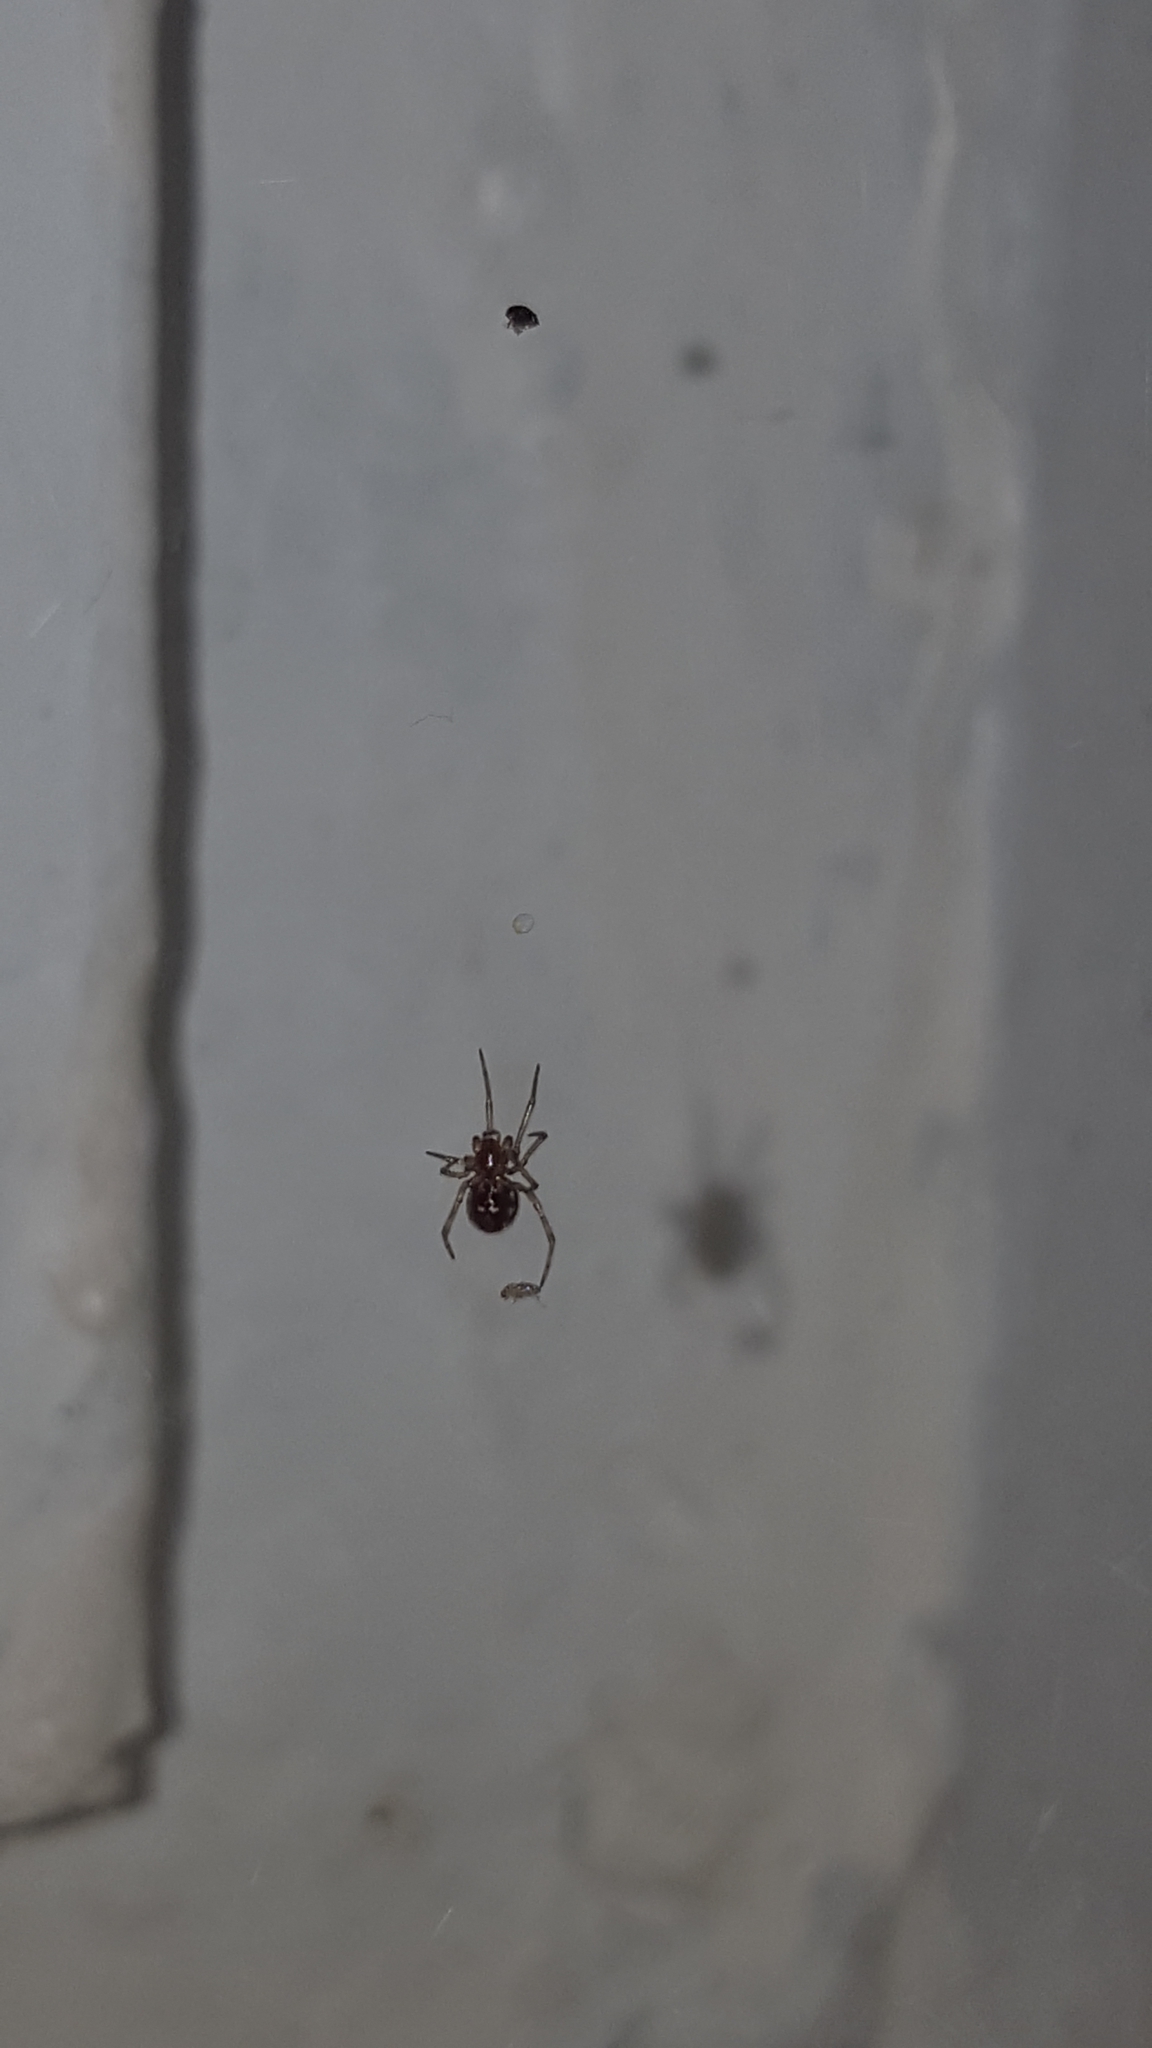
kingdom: Animalia
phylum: Arthropoda
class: Arachnida
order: Araneae
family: Theridiidae
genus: Steatoda
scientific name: Steatoda triangulosa
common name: Triangulate bud spider
